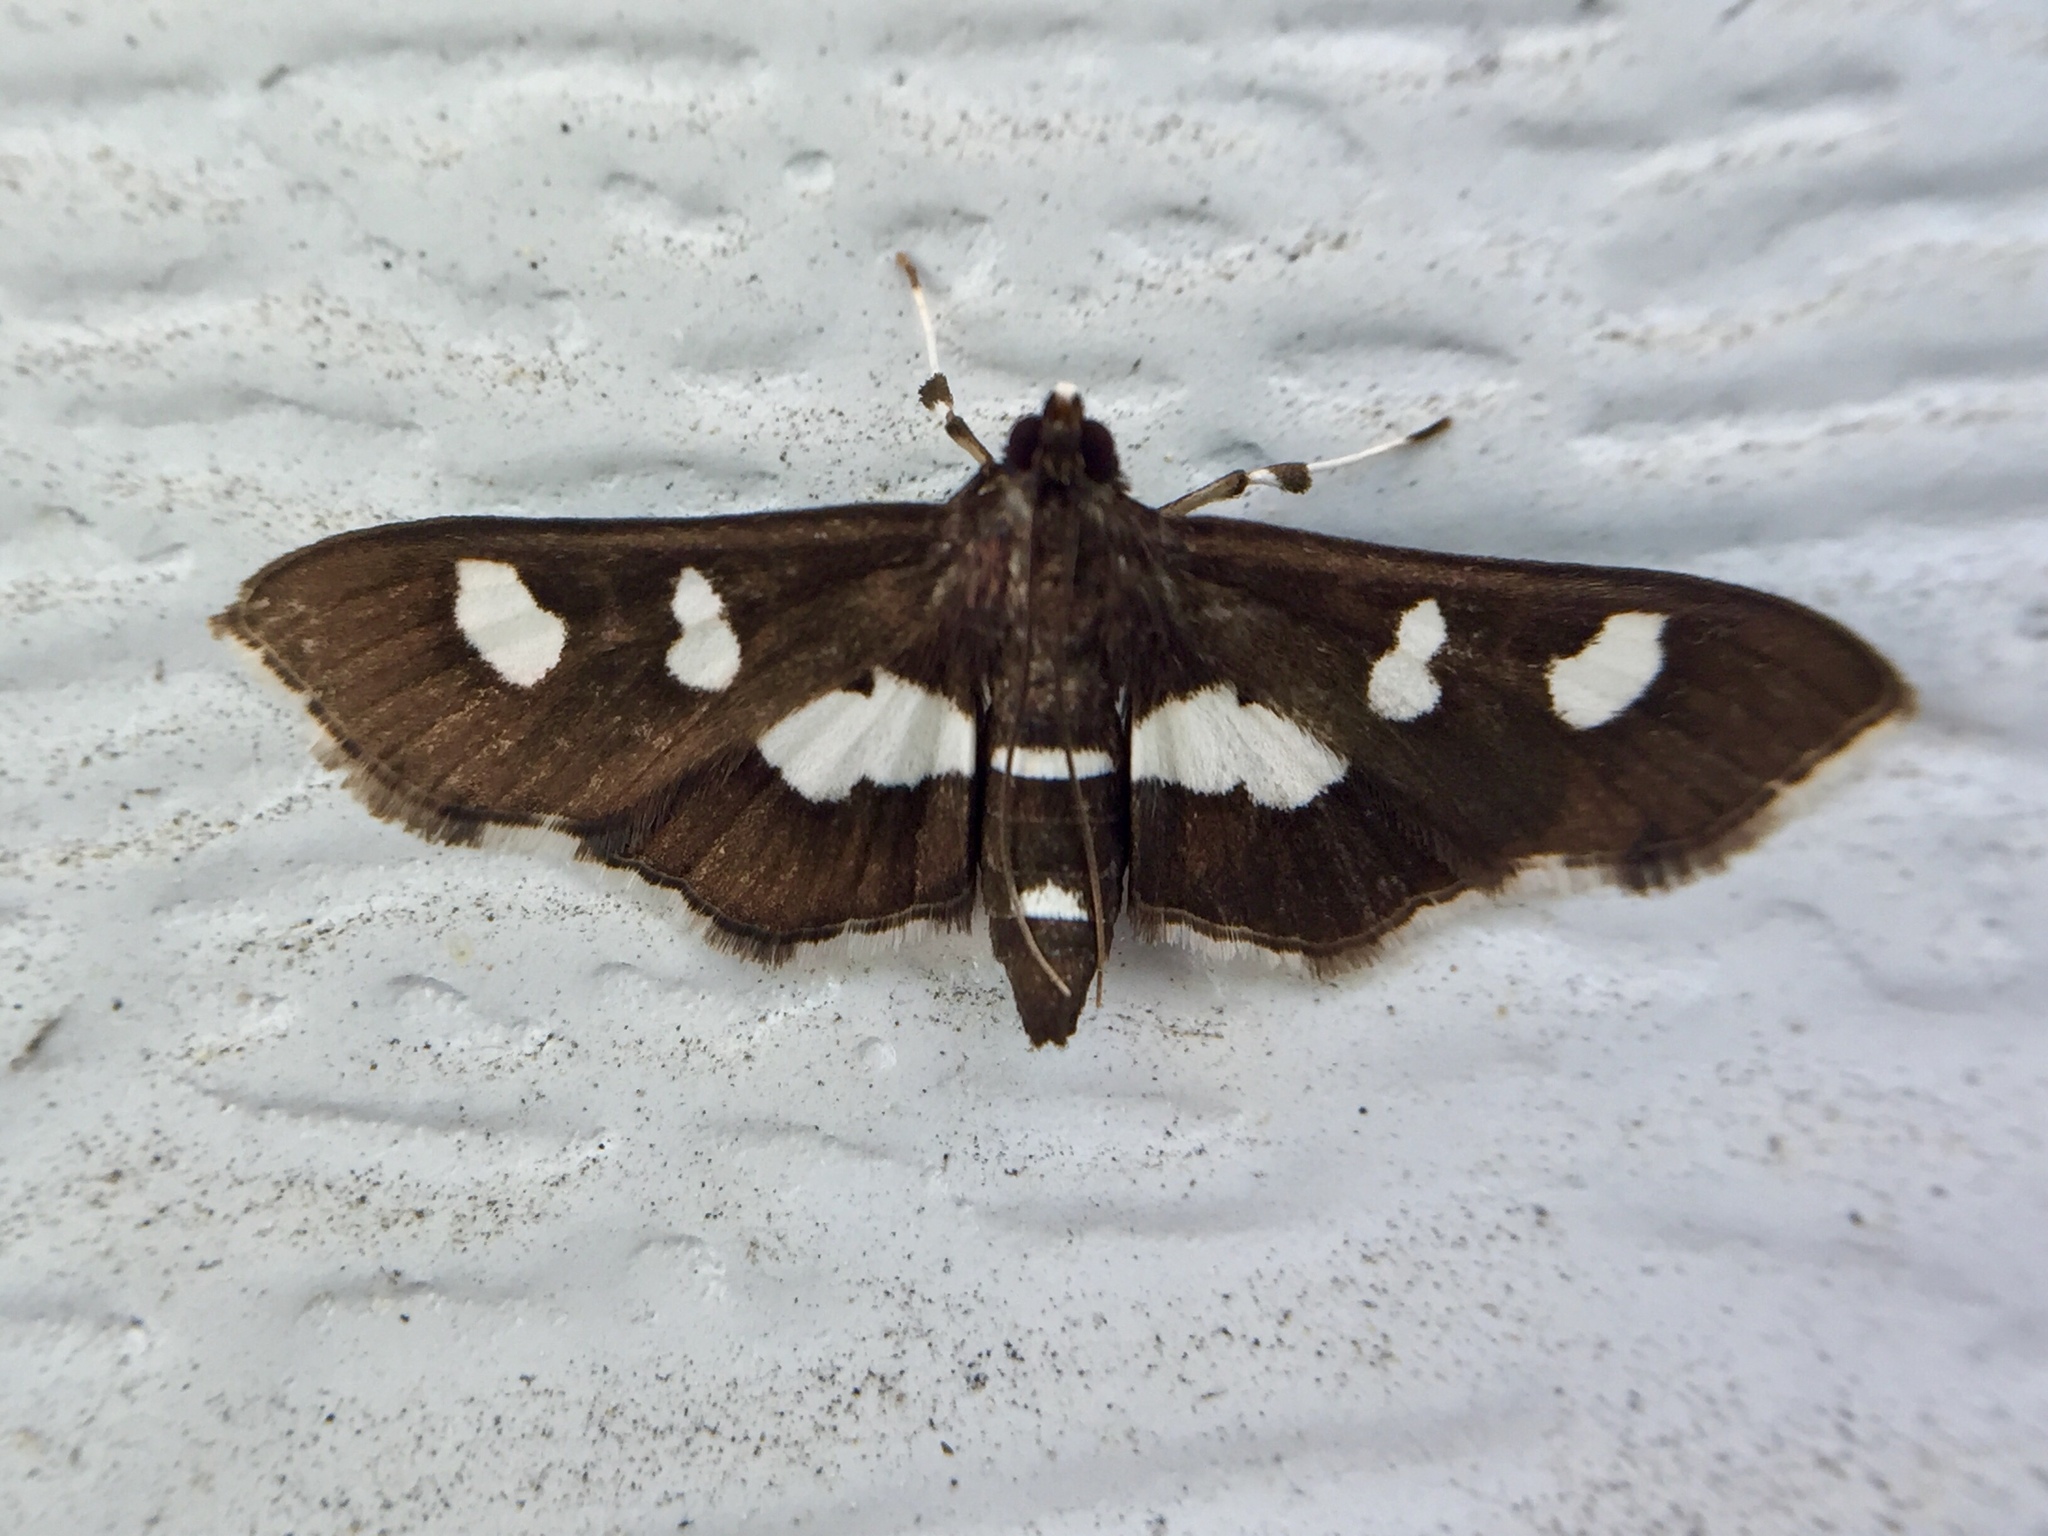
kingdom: Animalia
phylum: Arthropoda
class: Insecta
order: Lepidoptera
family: Crambidae
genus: Desmia
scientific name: Desmia
